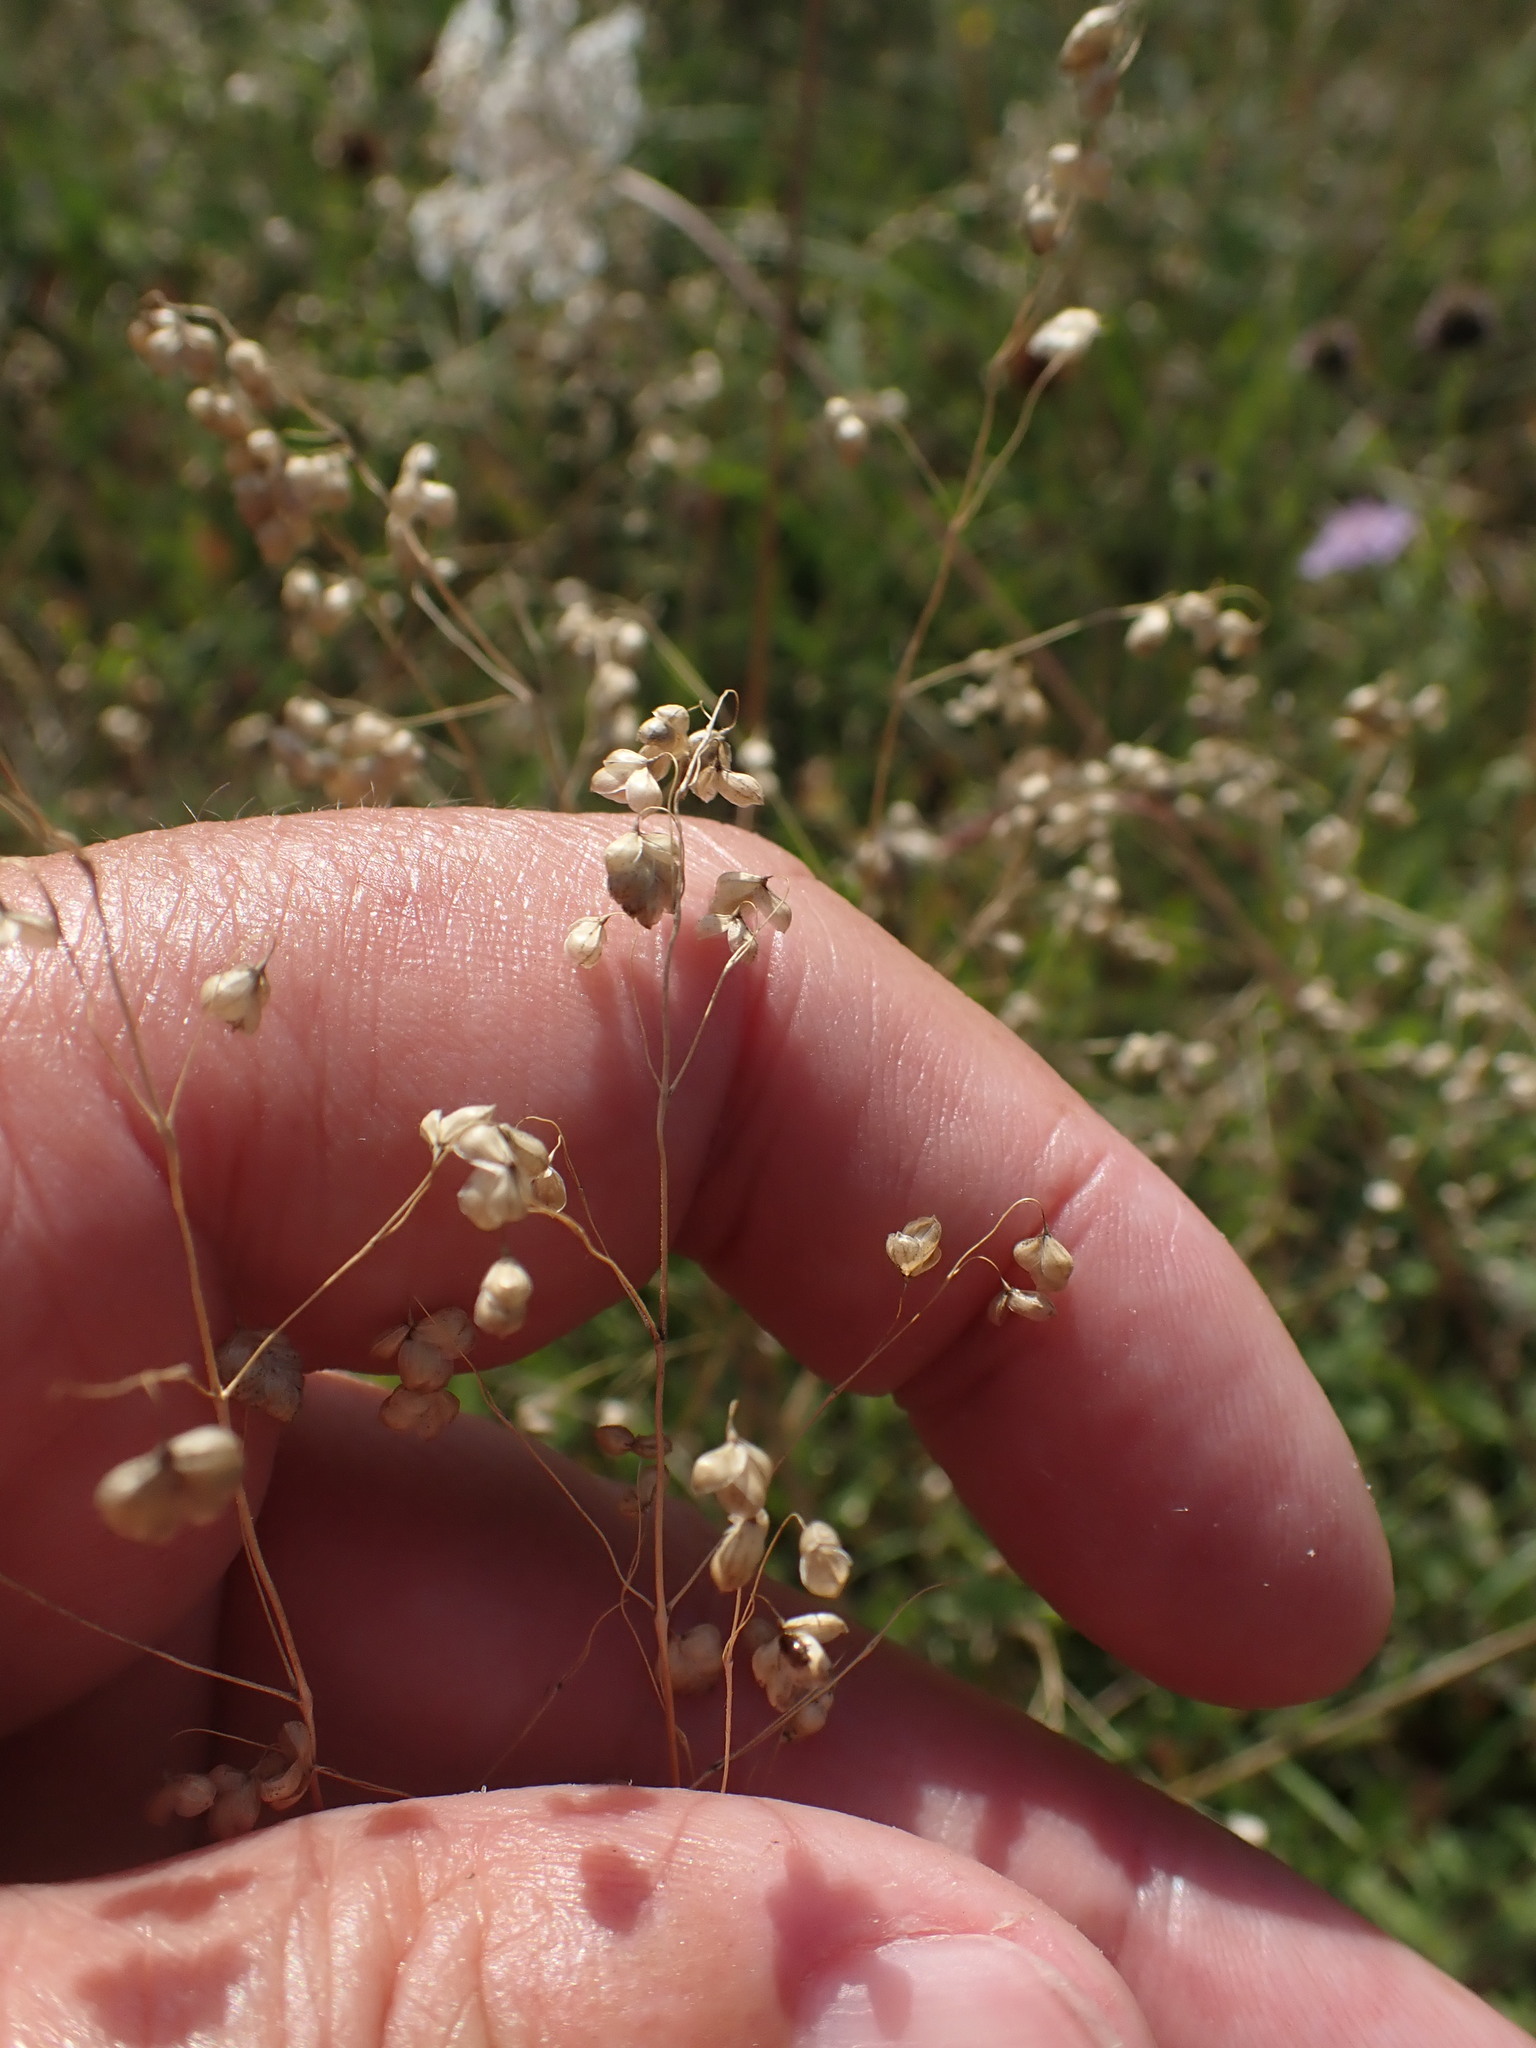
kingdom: Plantae
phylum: Tracheophyta
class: Liliopsida
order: Poales
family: Poaceae
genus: Briza
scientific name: Briza media
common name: Quaking grass
